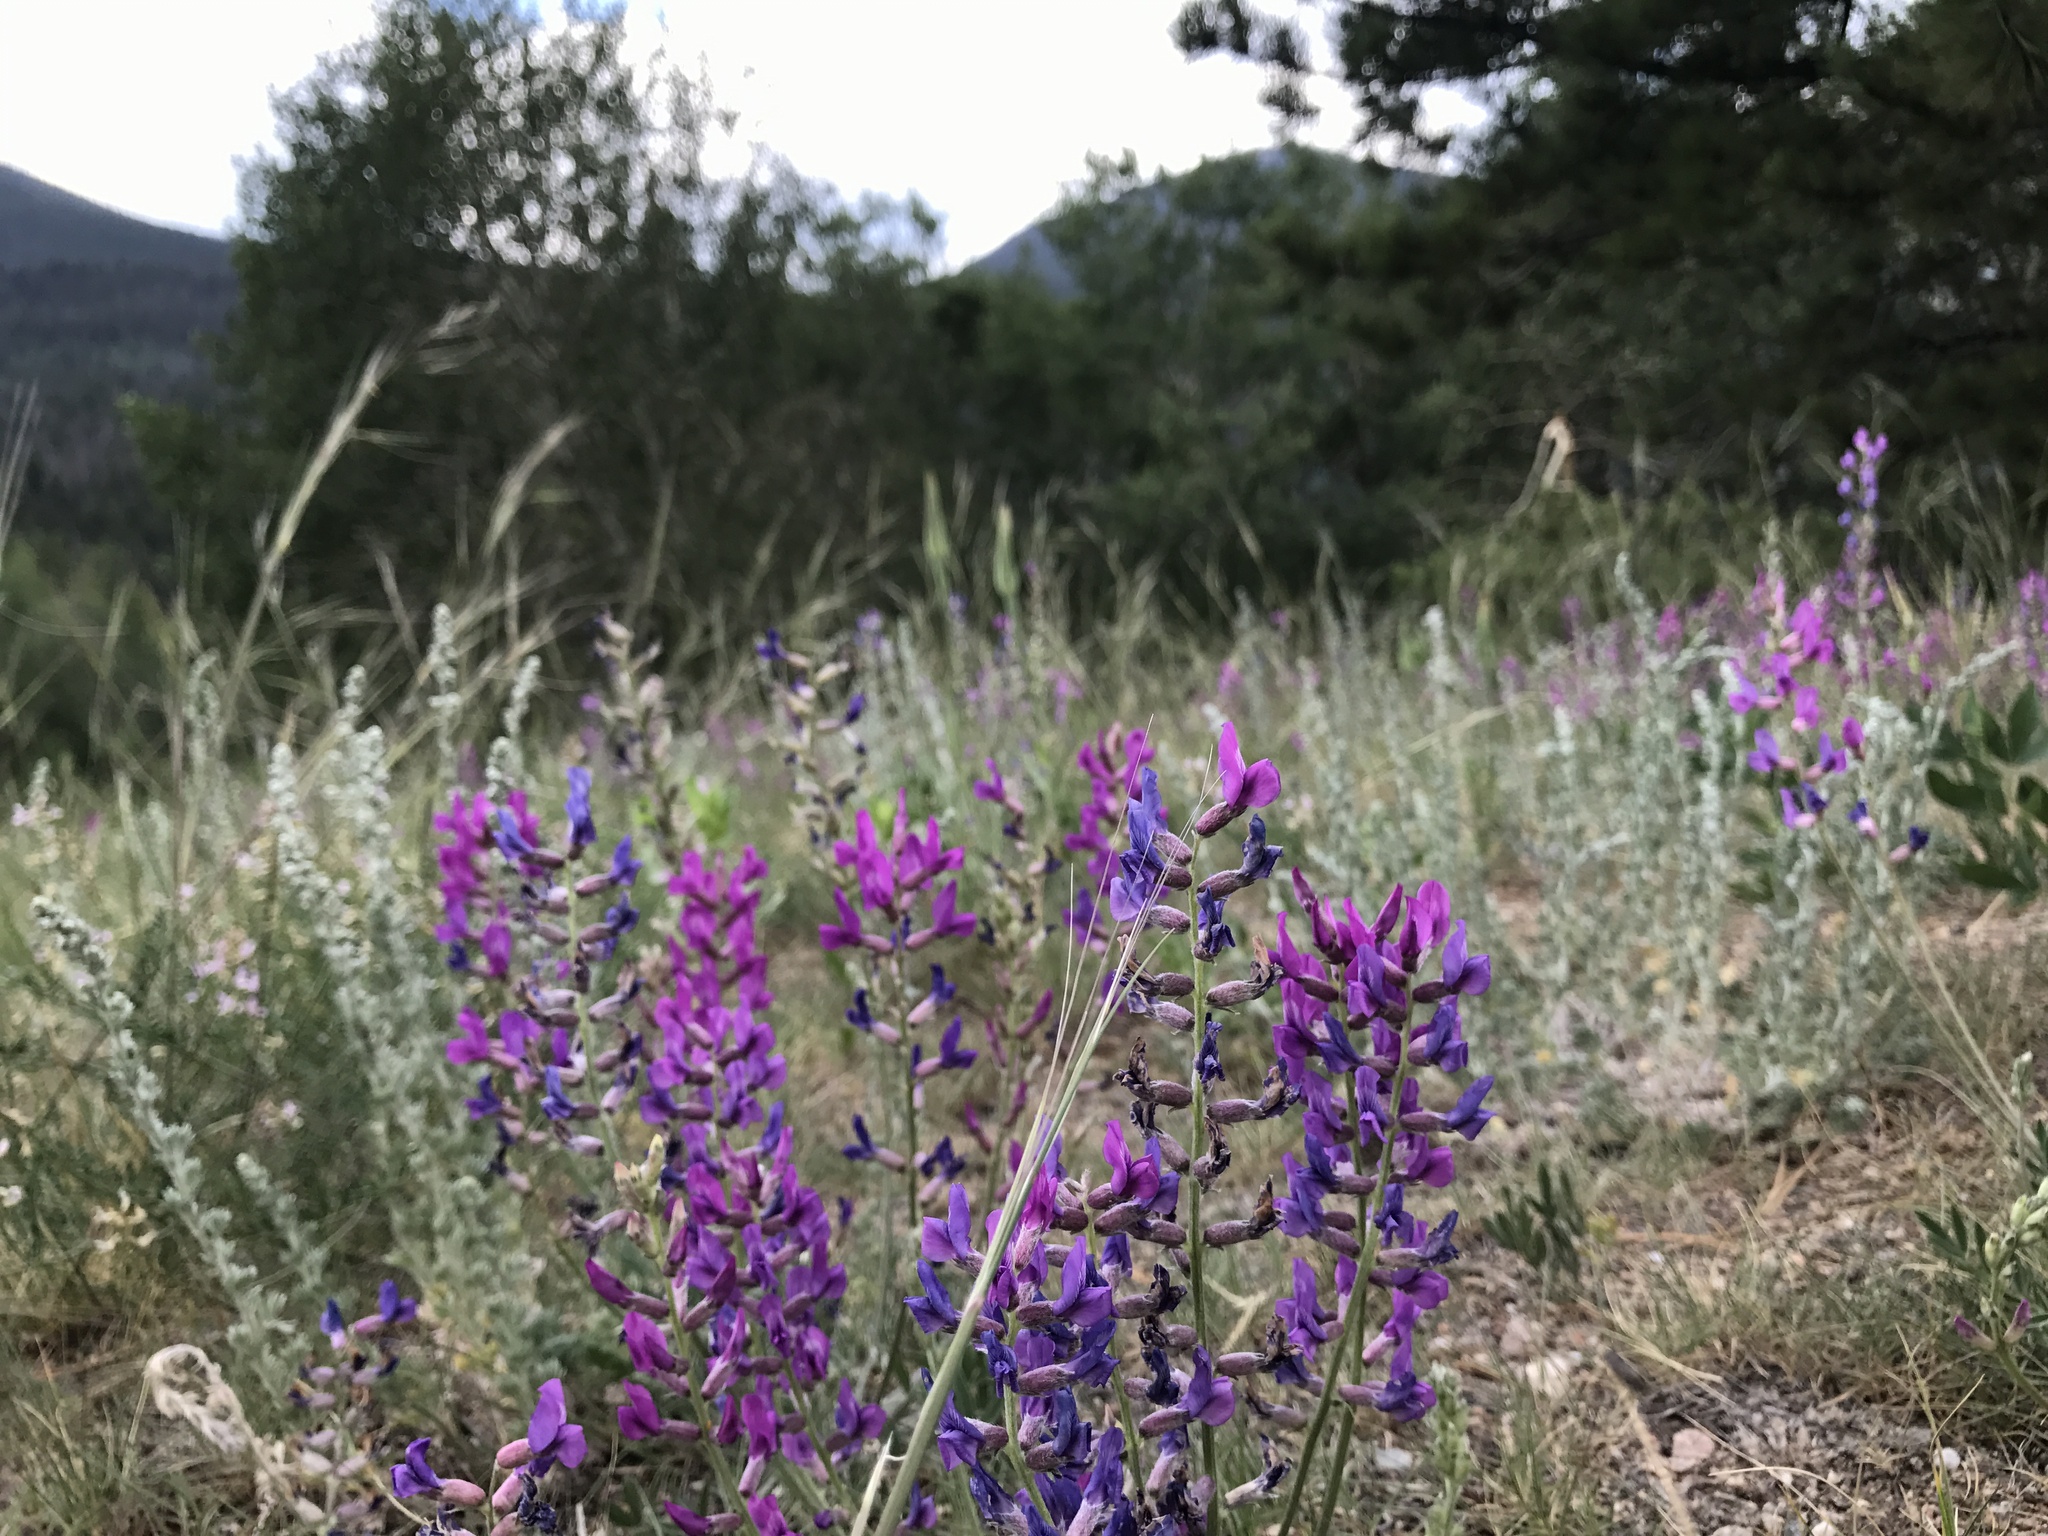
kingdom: Plantae
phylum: Tracheophyta
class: Magnoliopsida
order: Fabales
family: Fabaceae
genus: Oxytropis
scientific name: Oxytropis lambertii
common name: Purple locoweed
